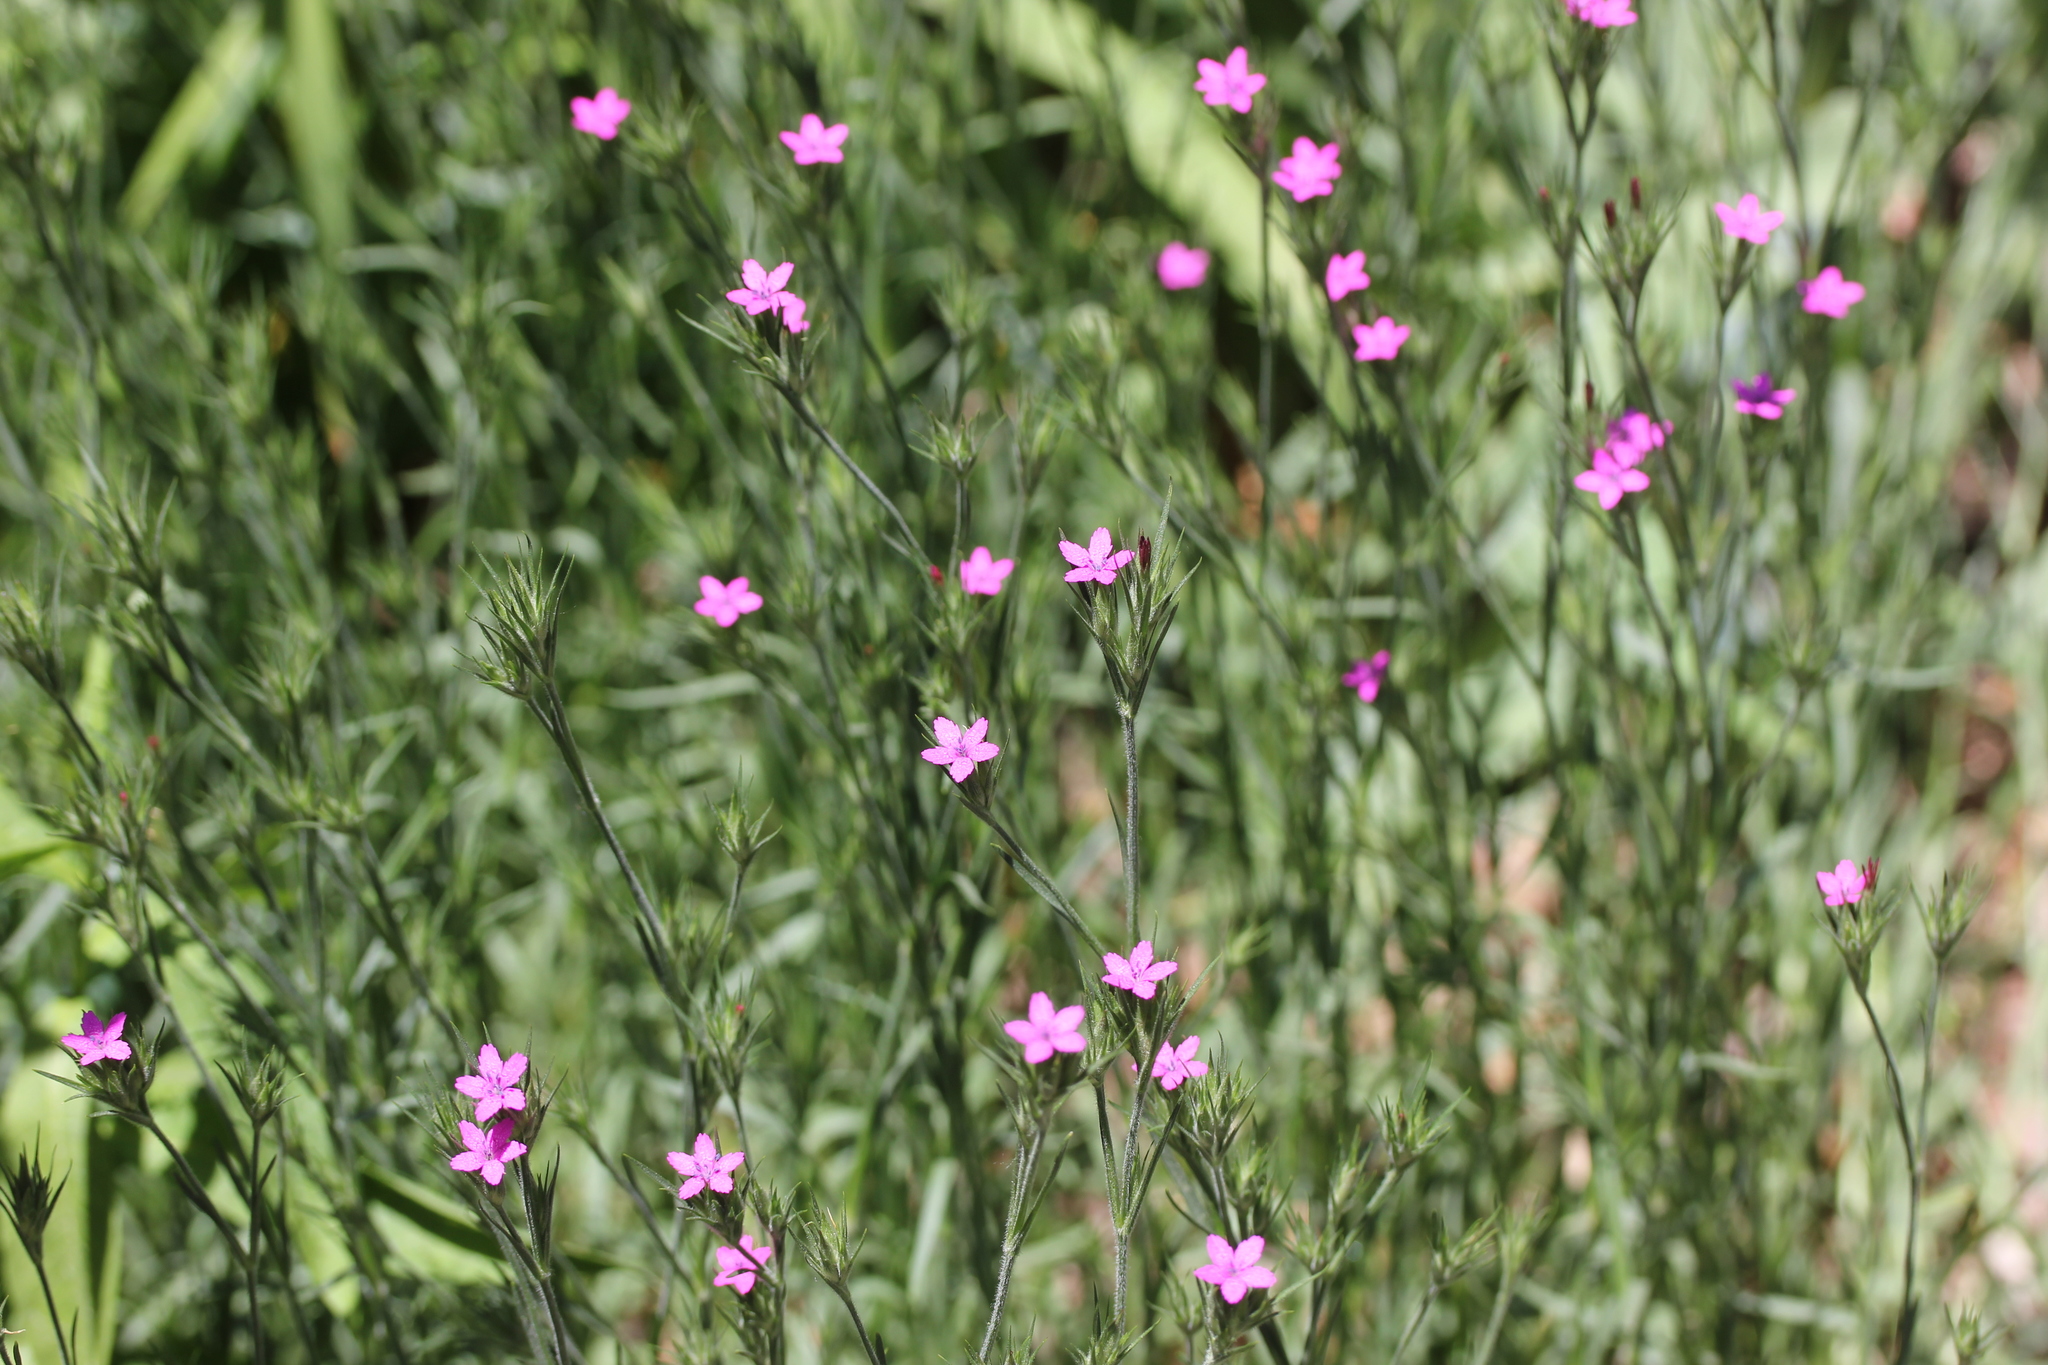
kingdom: Plantae
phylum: Tracheophyta
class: Magnoliopsida
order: Caryophyllales
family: Caryophyllaceae
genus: Dianthus
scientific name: Dianthus armeria
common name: Deptford pink
